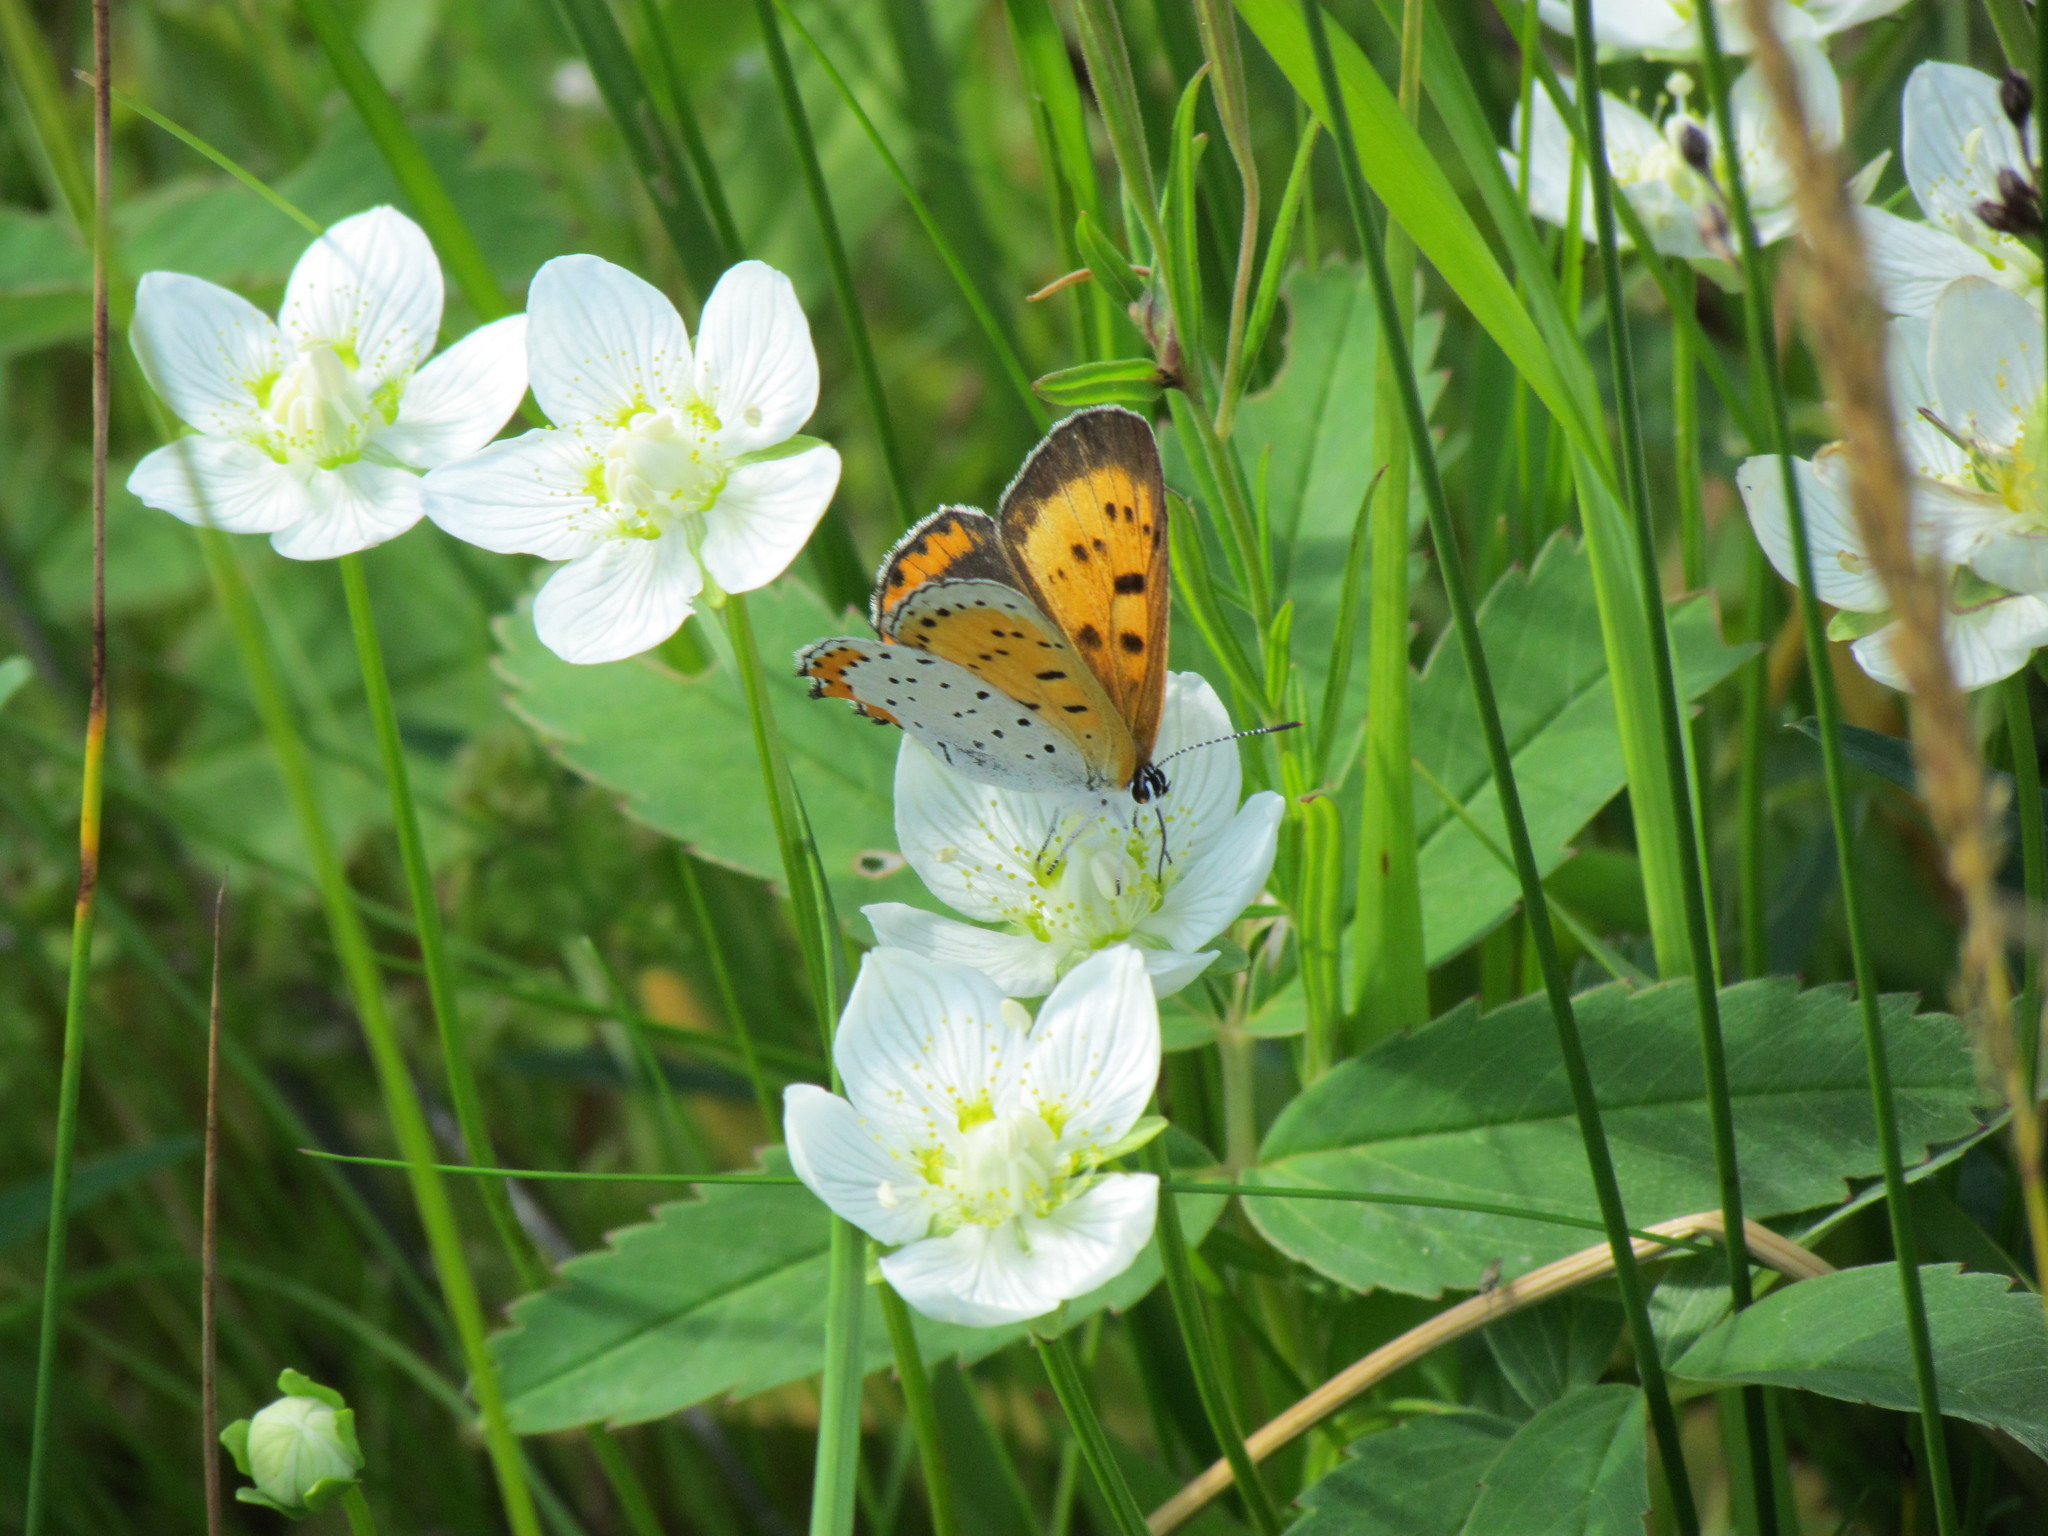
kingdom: Animalia
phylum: Arthropoda
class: Insecta
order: Lepidoptera
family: Lycaenidae
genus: Tharsalea
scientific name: Tharsalea hyllus
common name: Bronze copper
